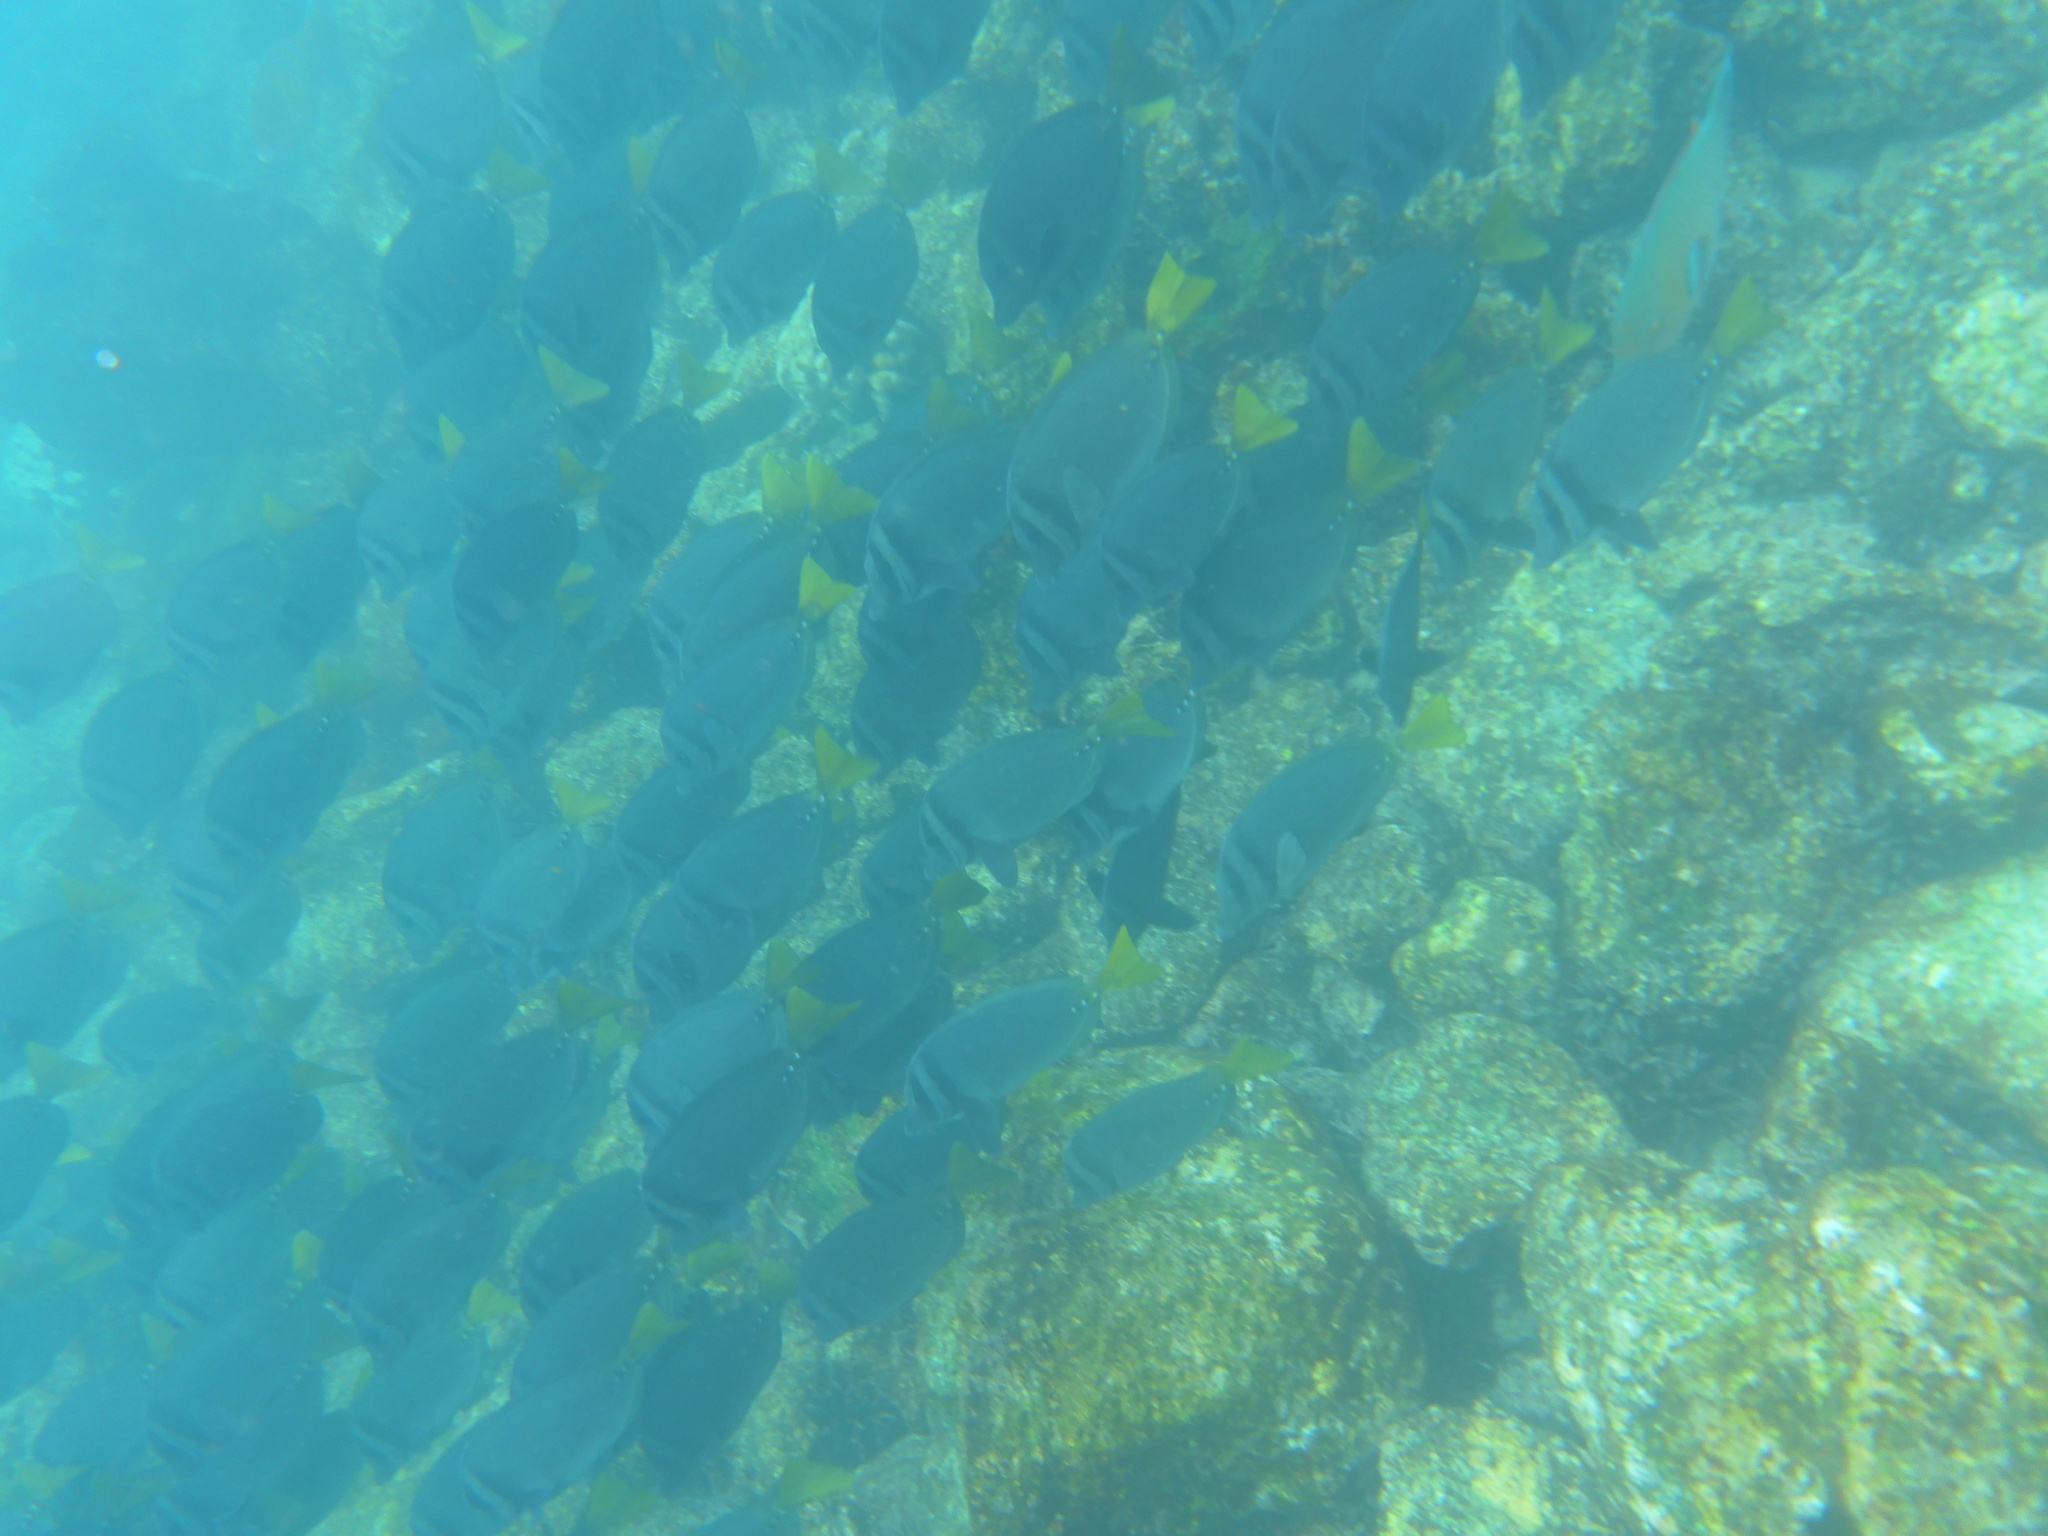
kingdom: Animalia
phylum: Chordata
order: Perciformes
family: Acanthuridae
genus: Prionurus
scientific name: Prionurus laticlavius
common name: Razor surgeonfish
